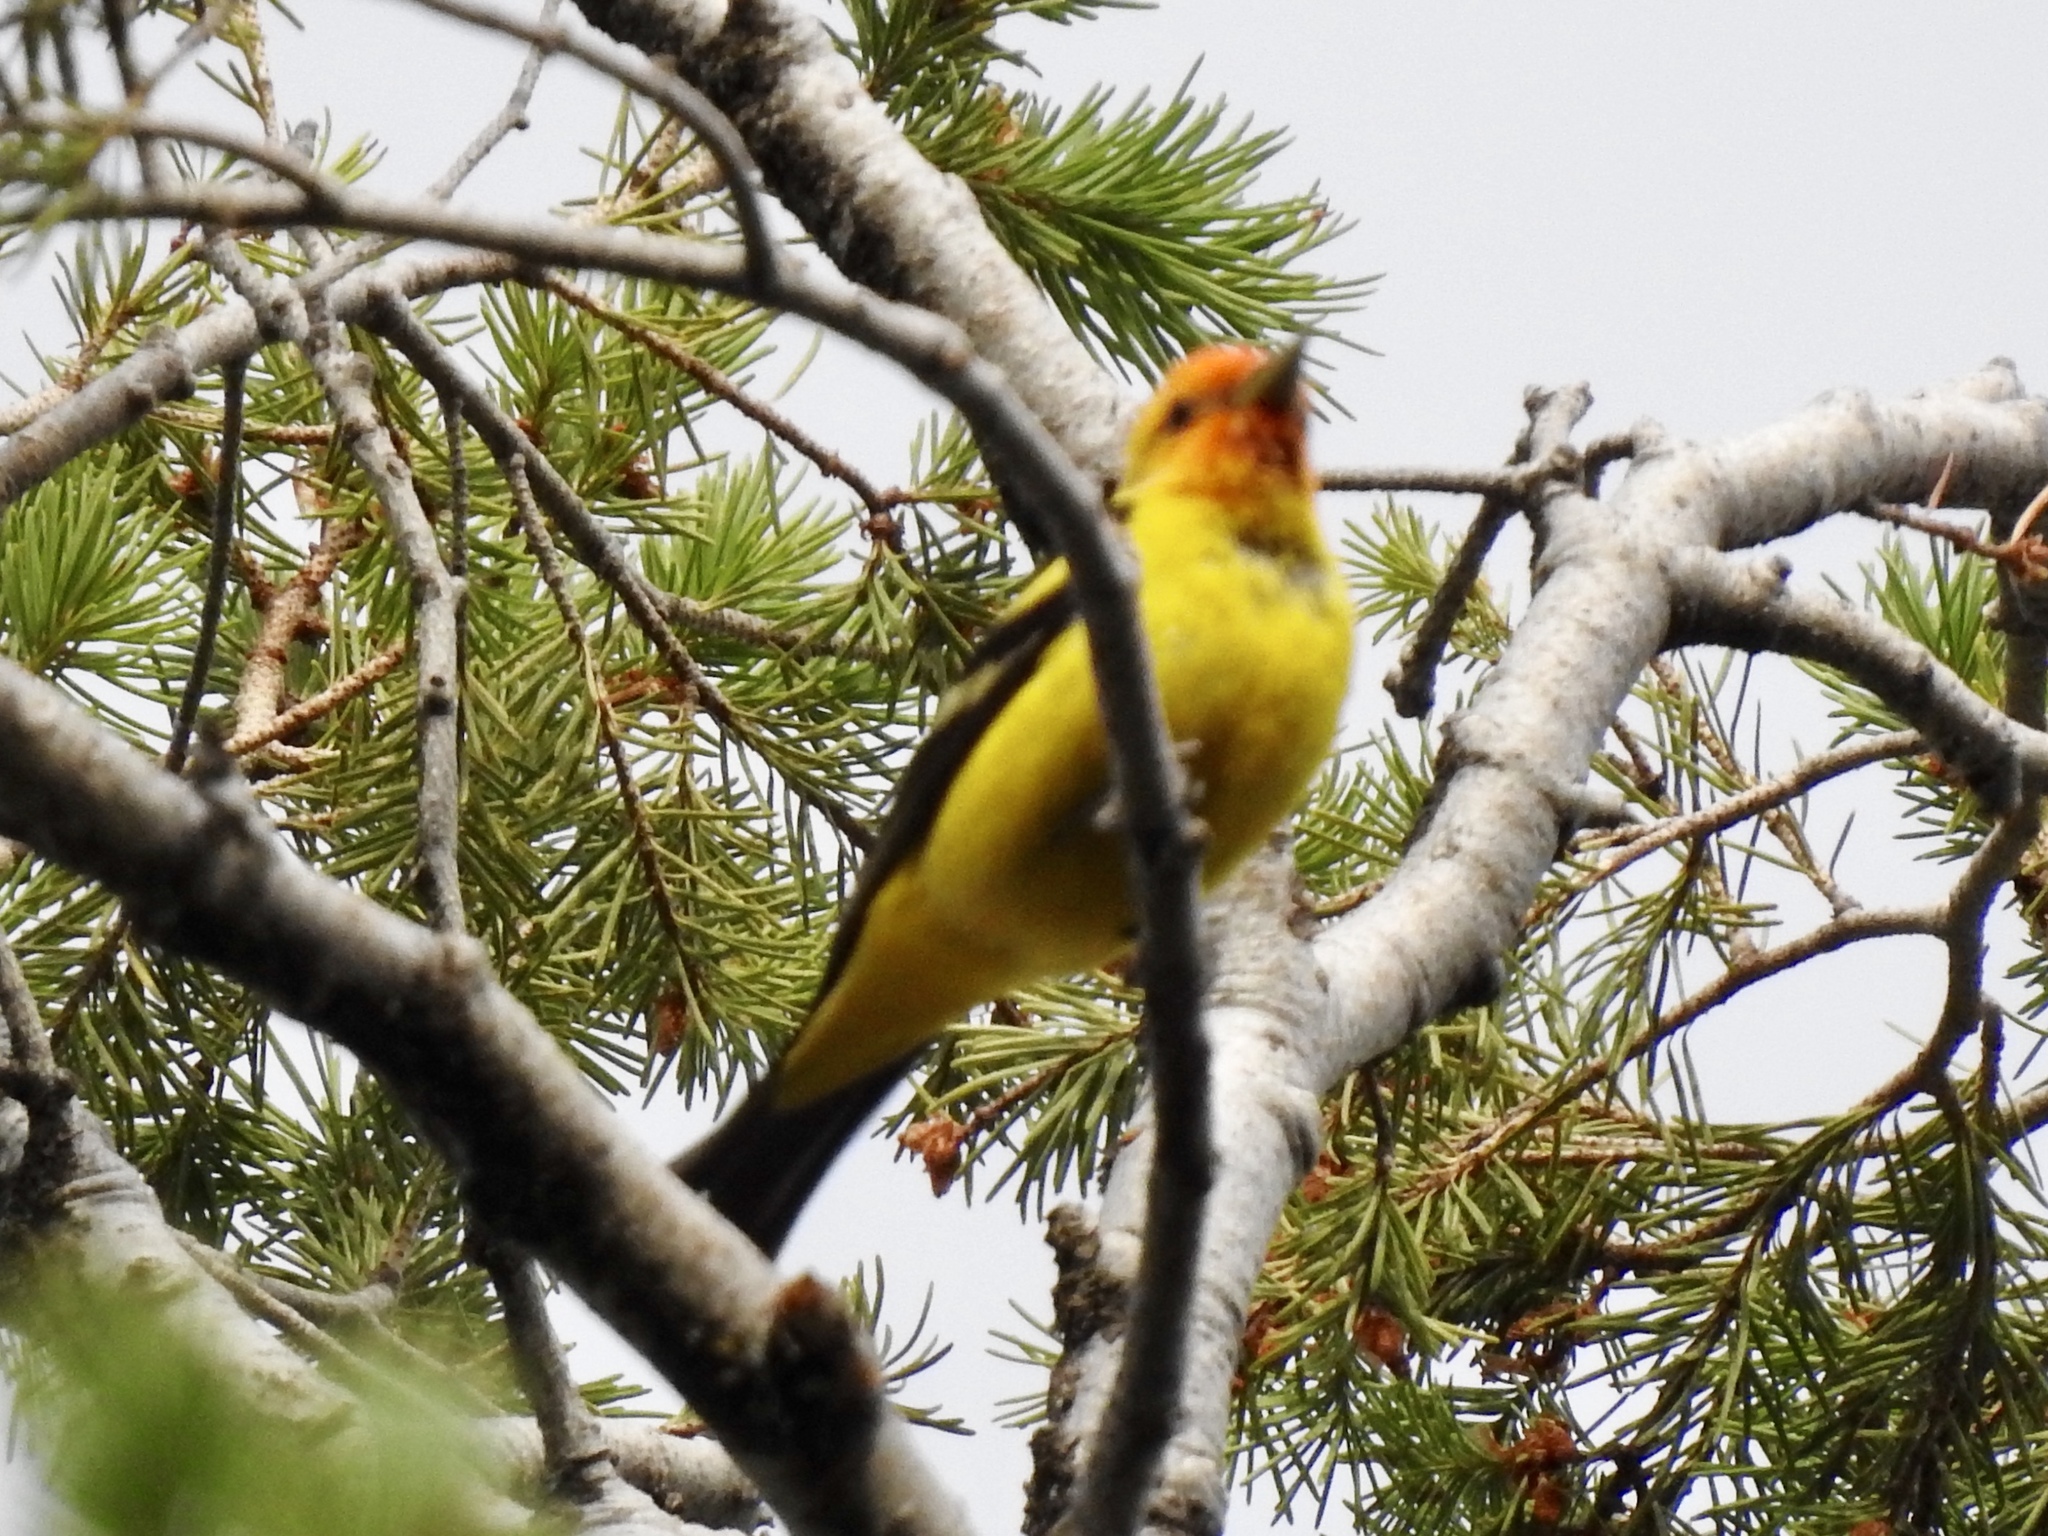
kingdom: Animalia
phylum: Chordata
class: Aves
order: Passeriformes
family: Cardinalidae
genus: Piranga
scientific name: Piranga ludoviciana
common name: Western tanager
